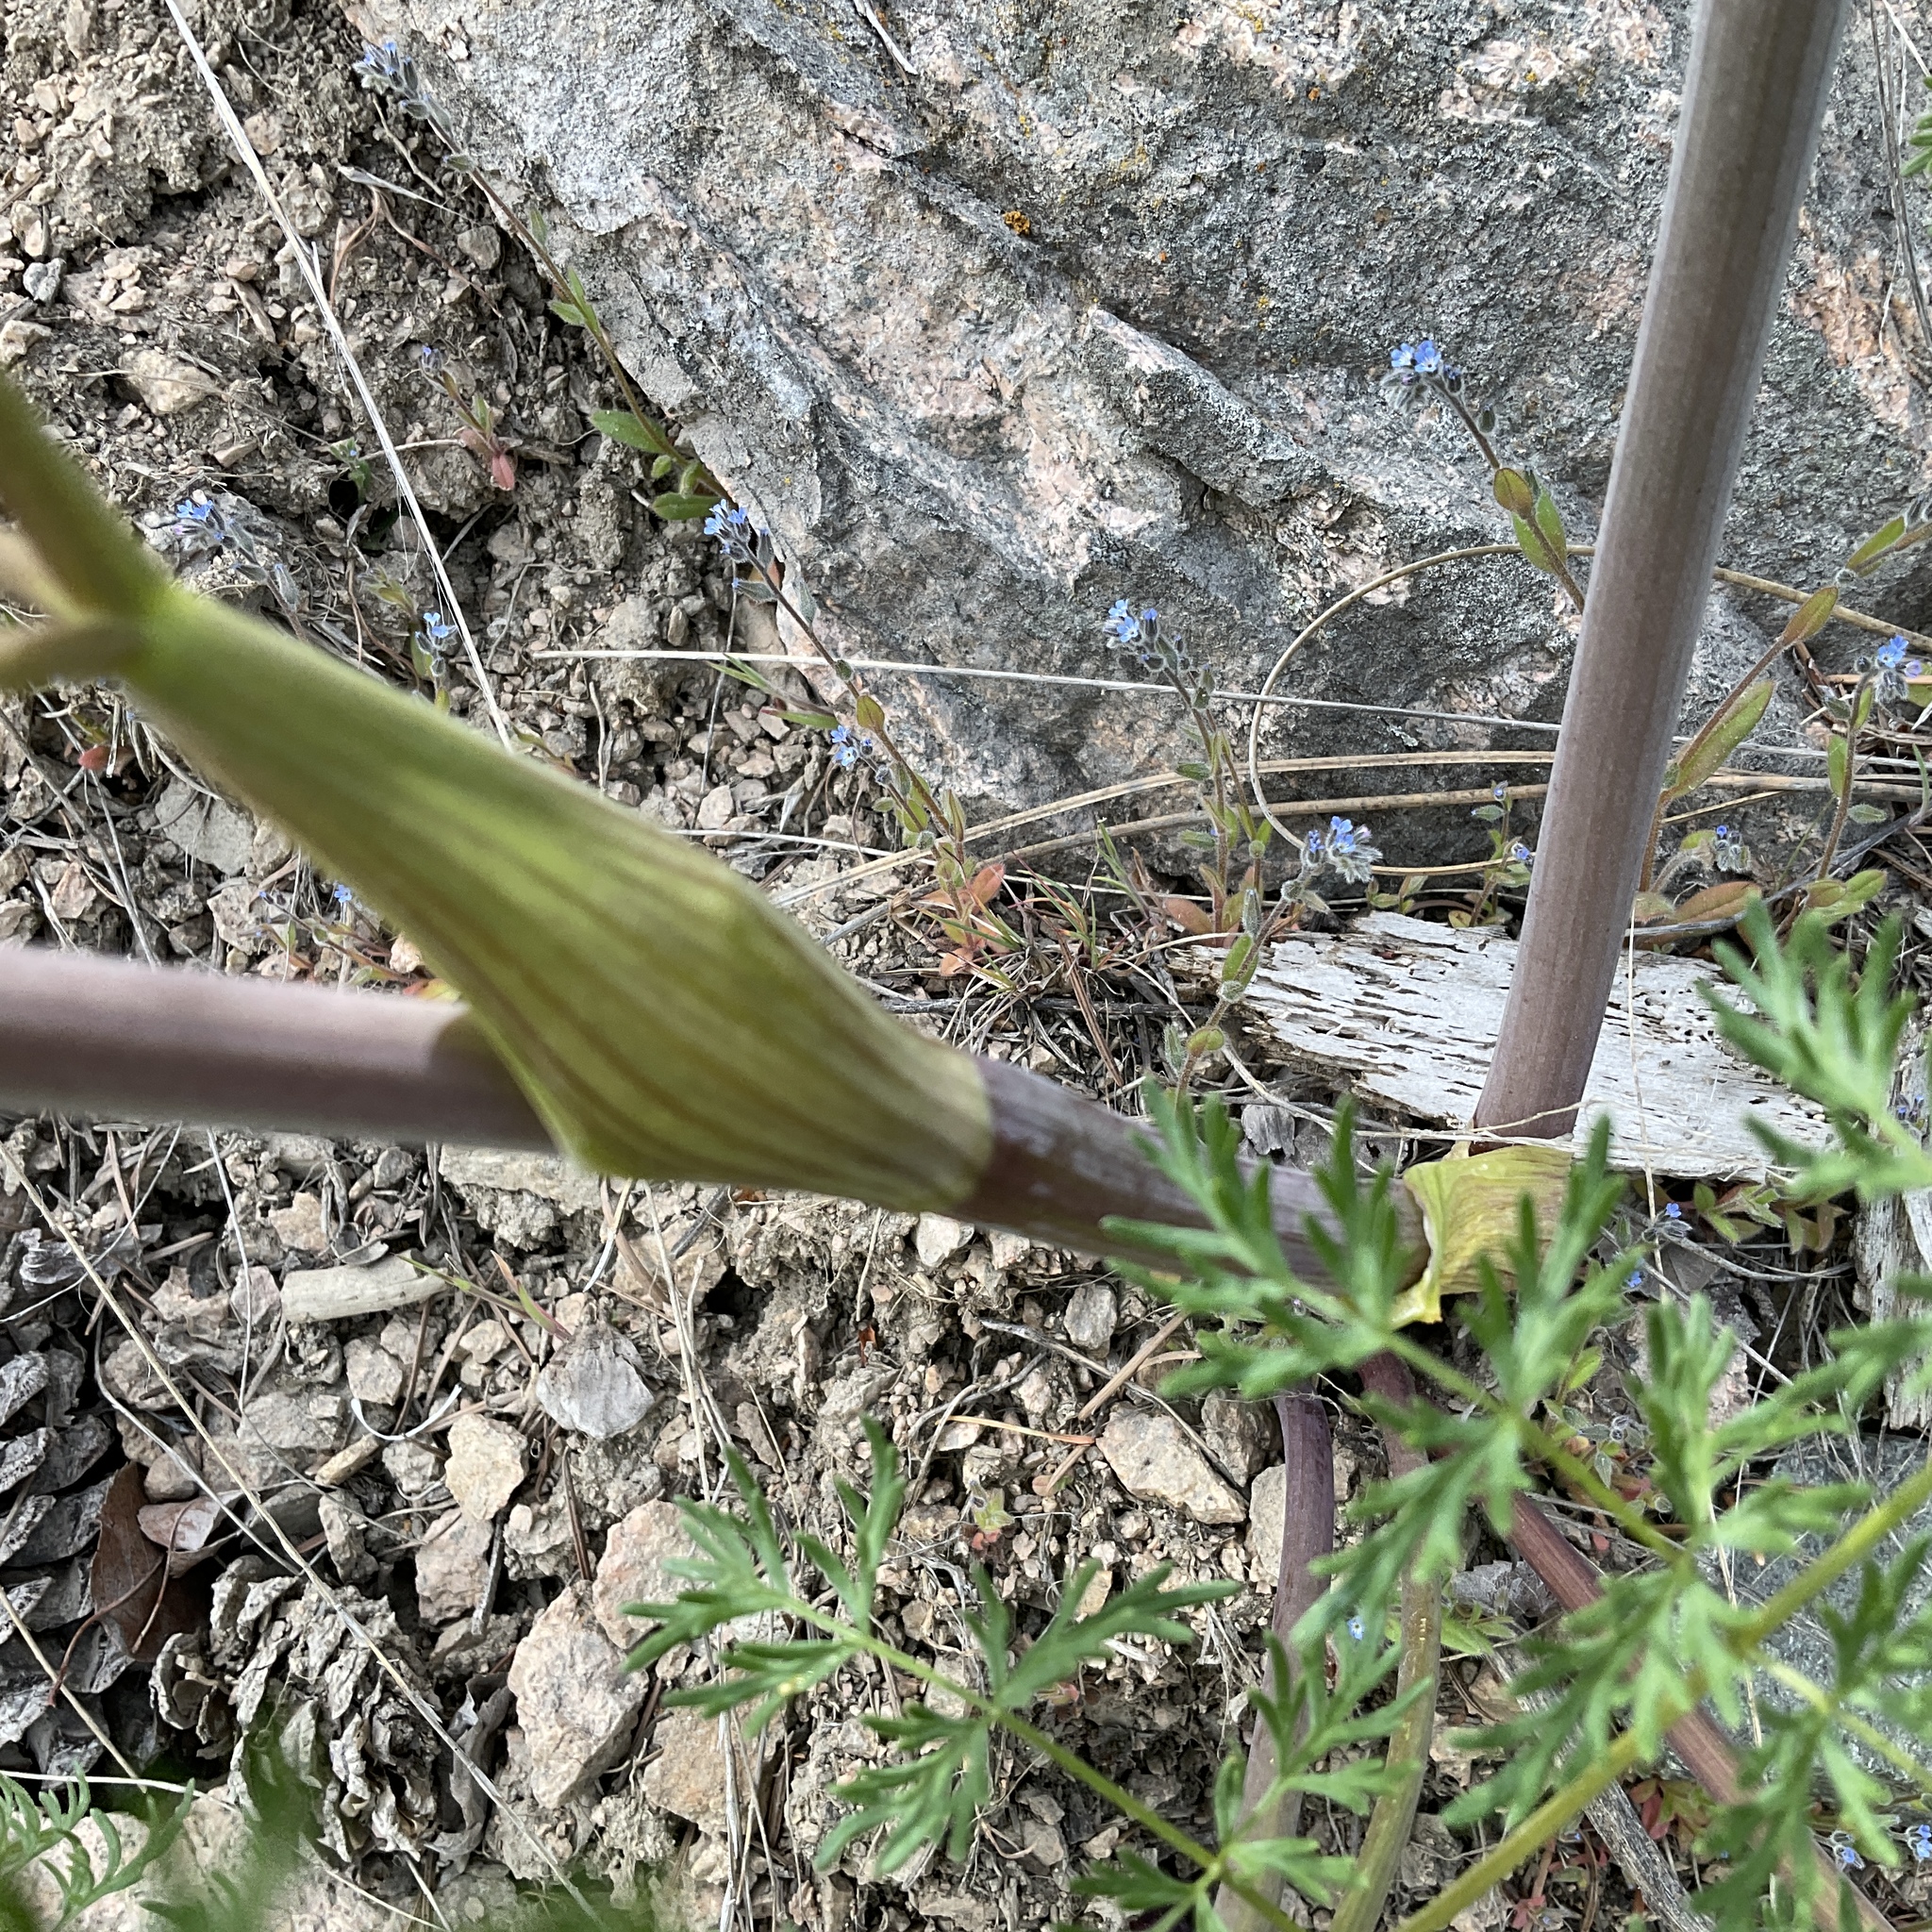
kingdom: Plantae
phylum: Tracheophyta
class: Magnoliopsida
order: Apiales
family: Apiaceae
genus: Lomatium
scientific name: Lomatium multifidum
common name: Carrot-leaved biscuitroot
